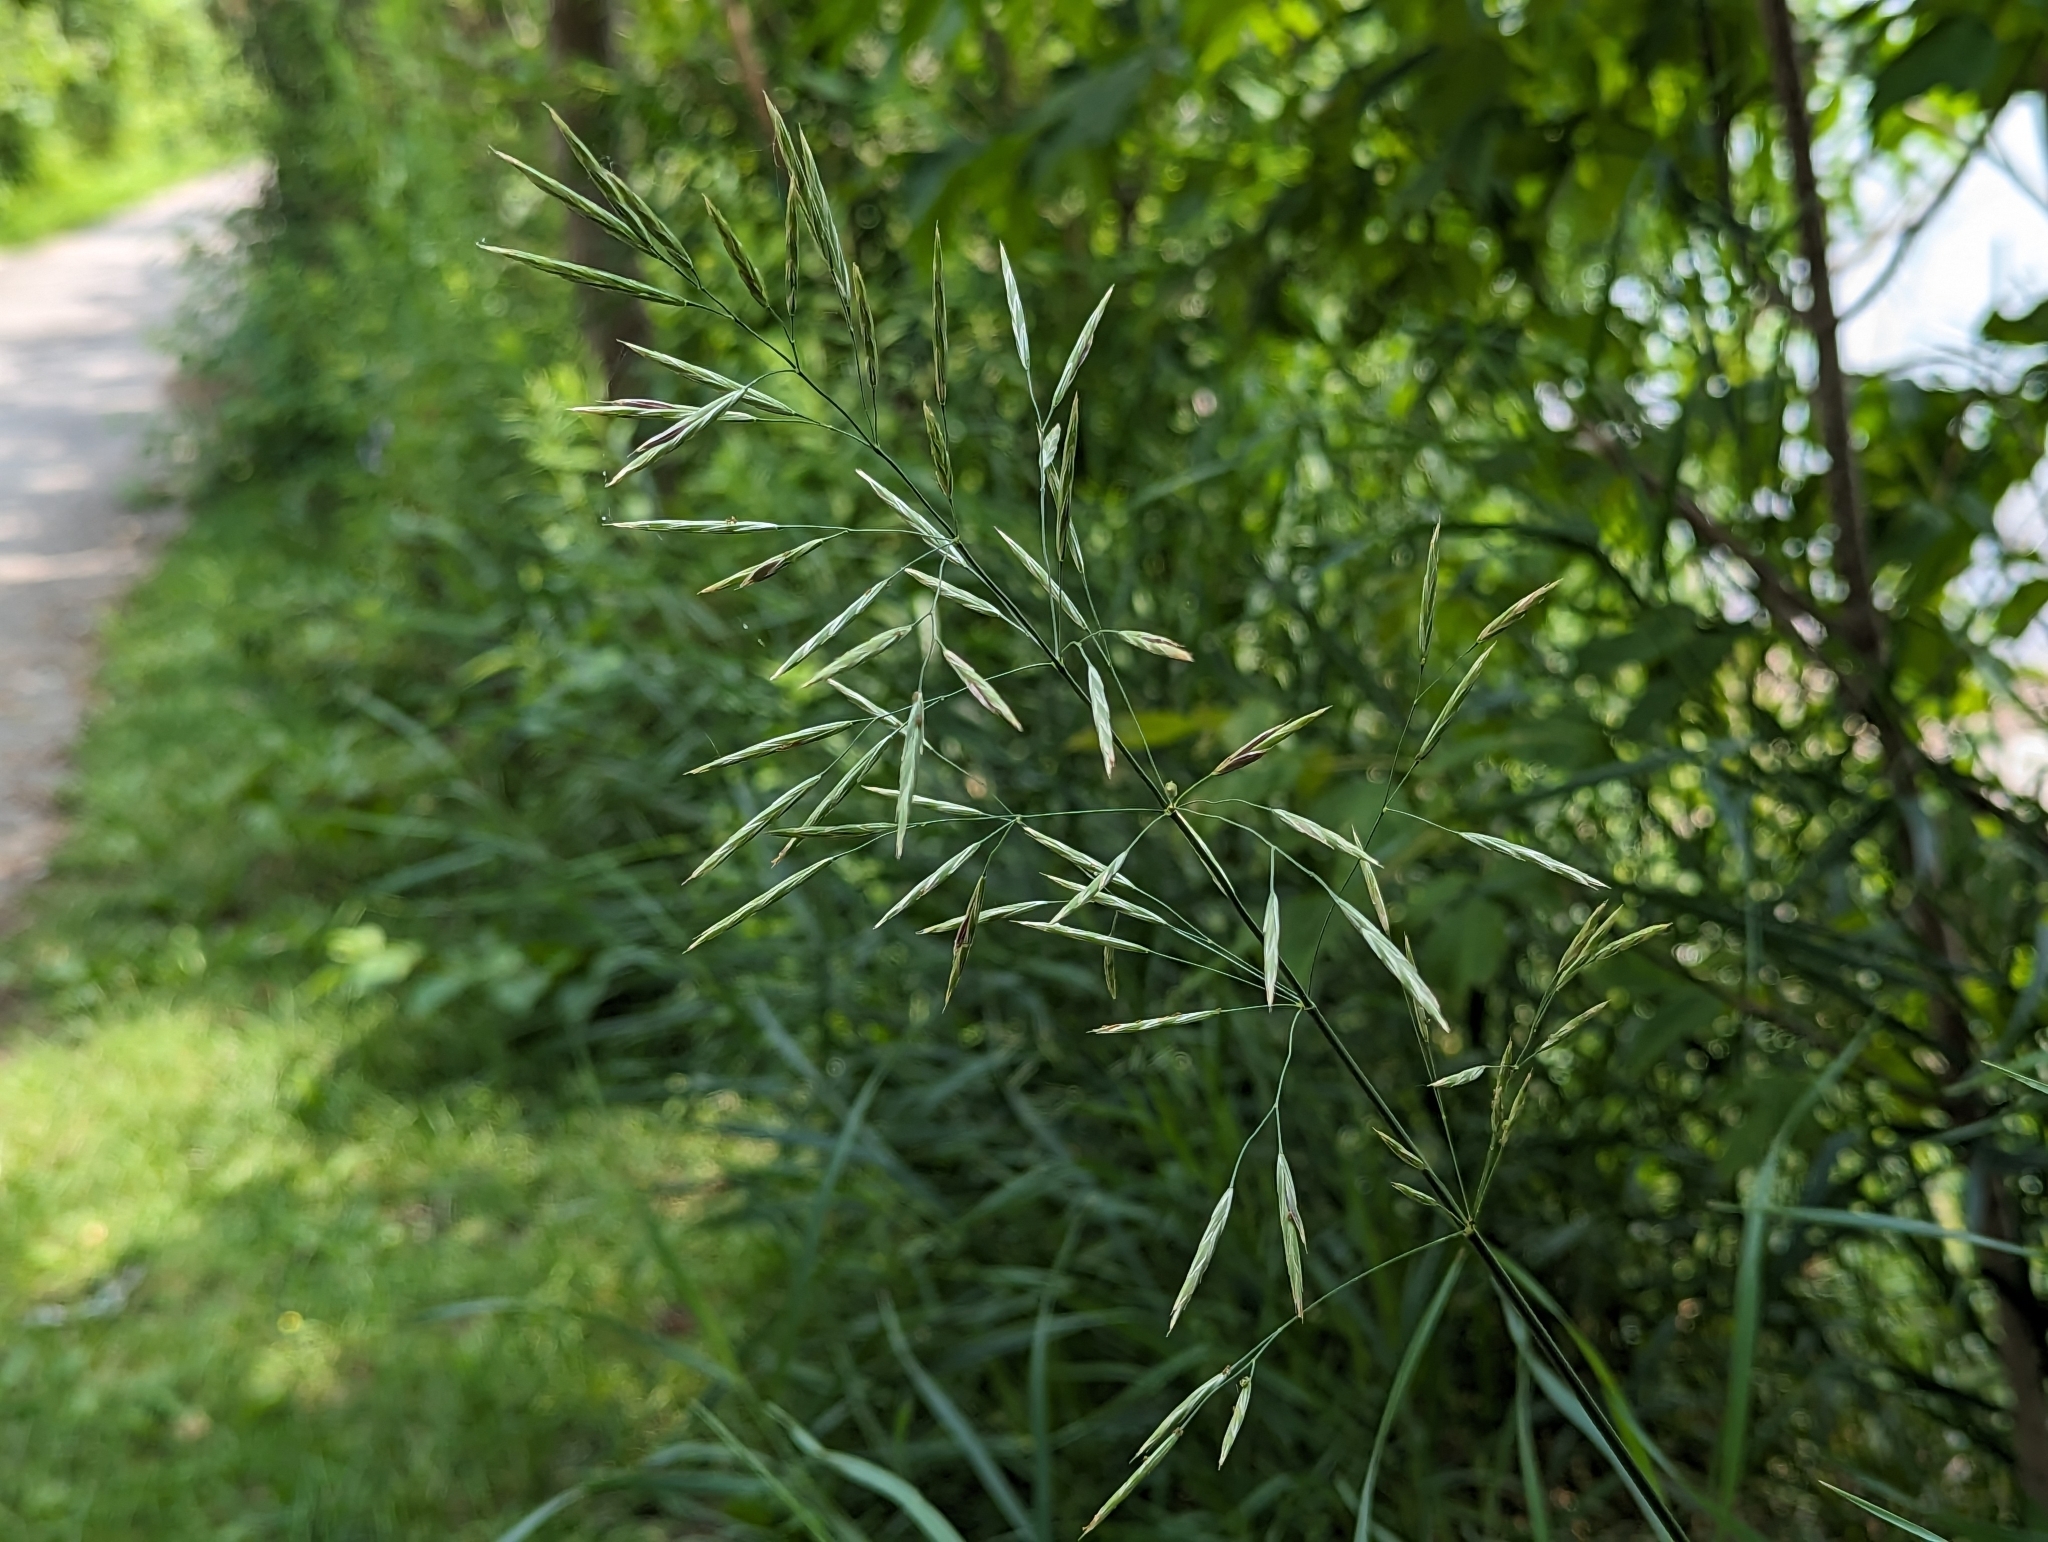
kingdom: Plantae
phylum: Tracheophyta
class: Liliopsida
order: Poales
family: Poaceae
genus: Bromus
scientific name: Bromus inermis
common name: Smooth brome
